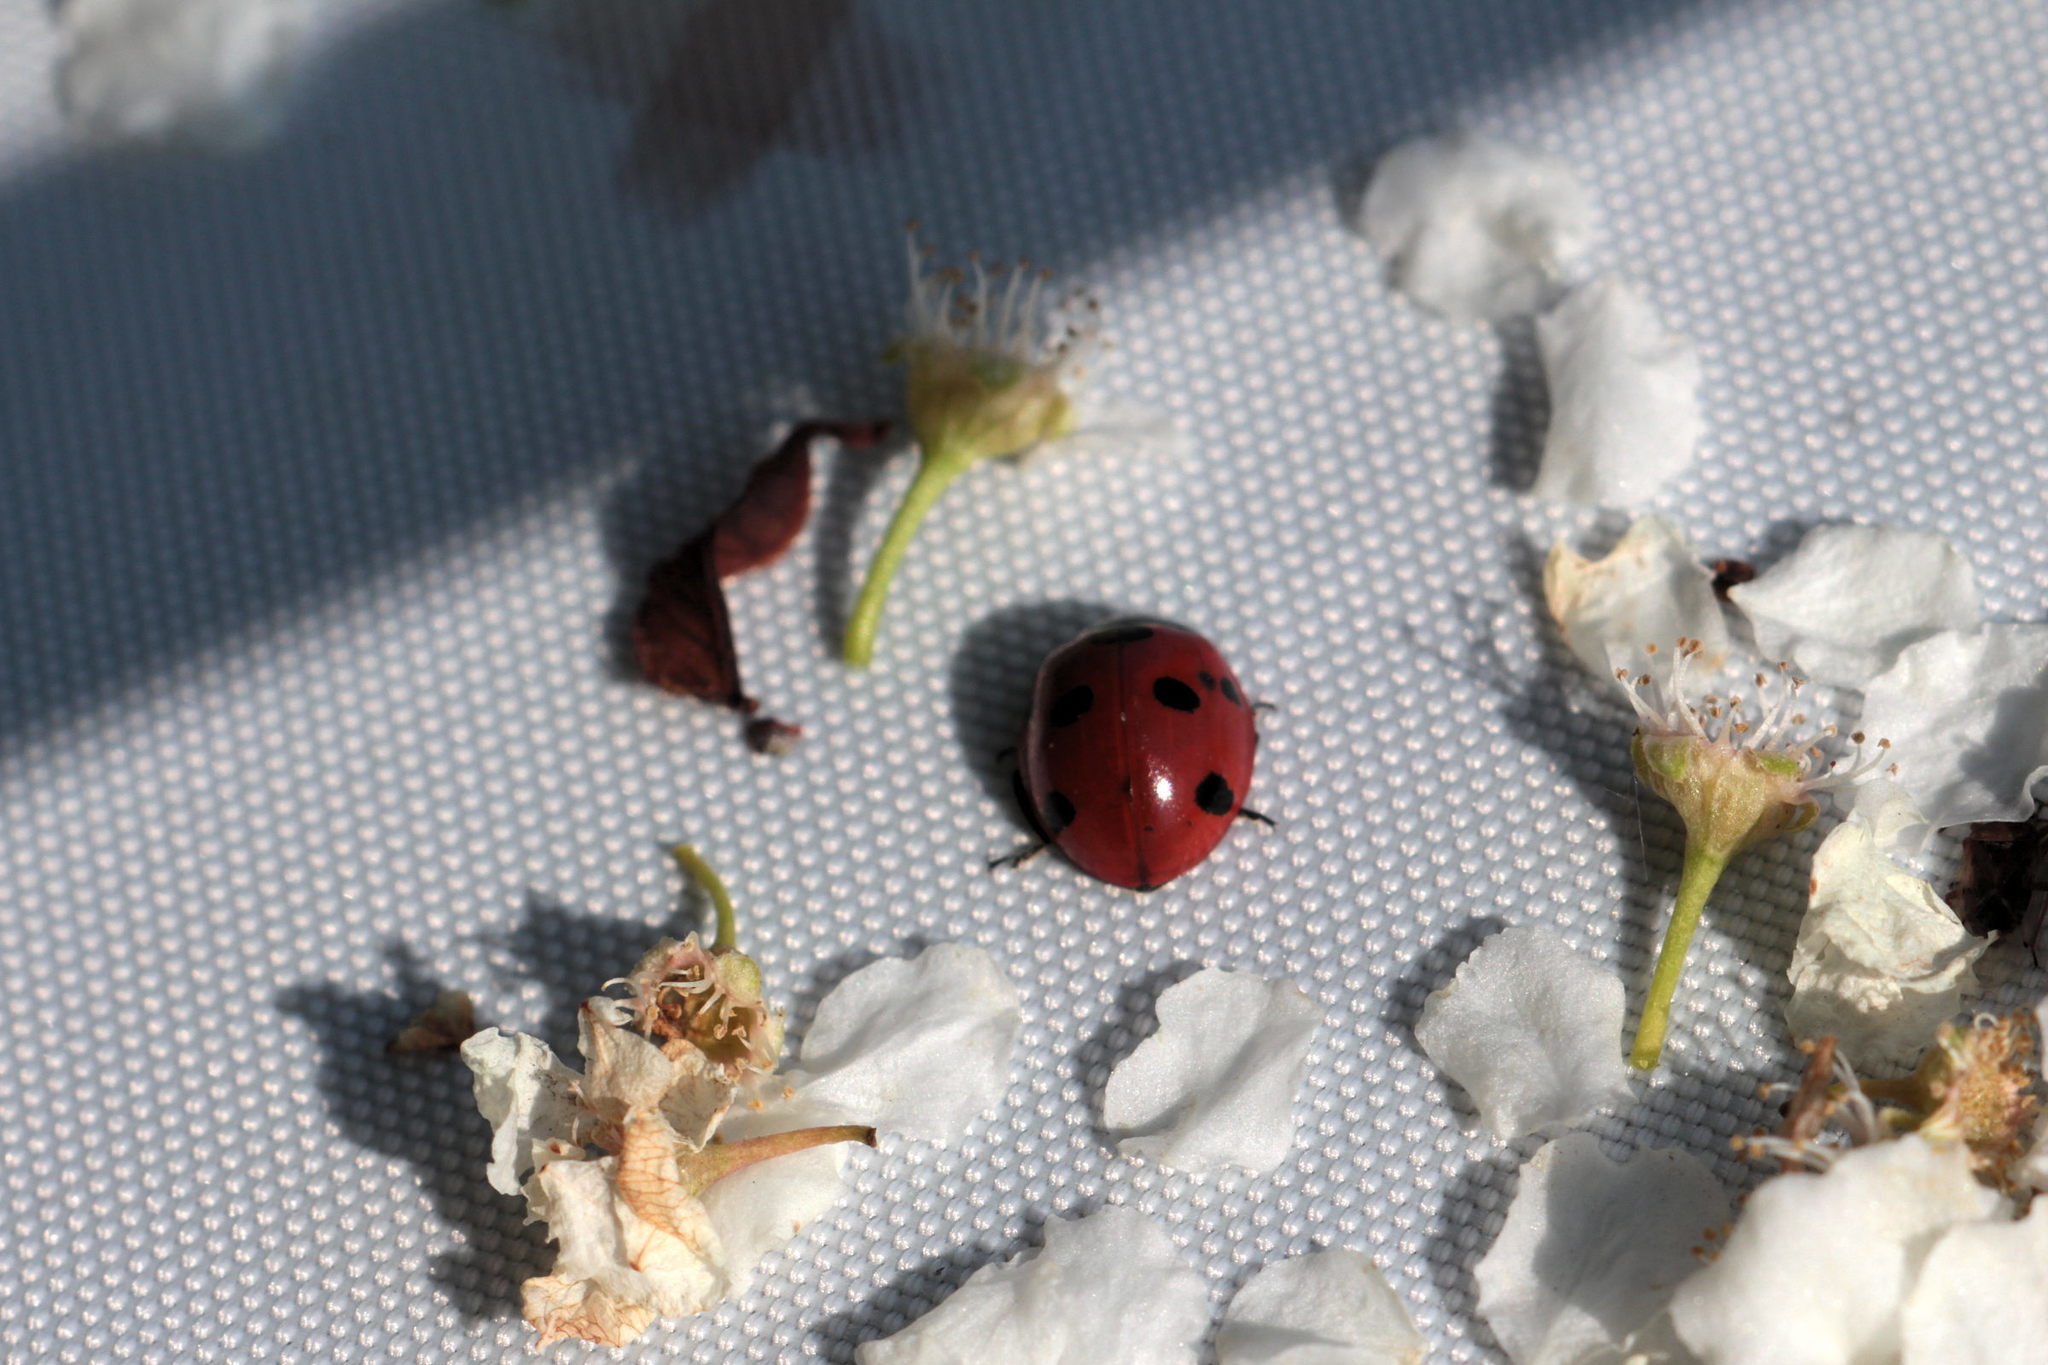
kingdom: Animalia
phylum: Arthropoda
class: Insecta
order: Coleoptera
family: Coccinellidae
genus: Coccinella
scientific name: Coccinella septempunctata
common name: Sevenspotted lady beetle
